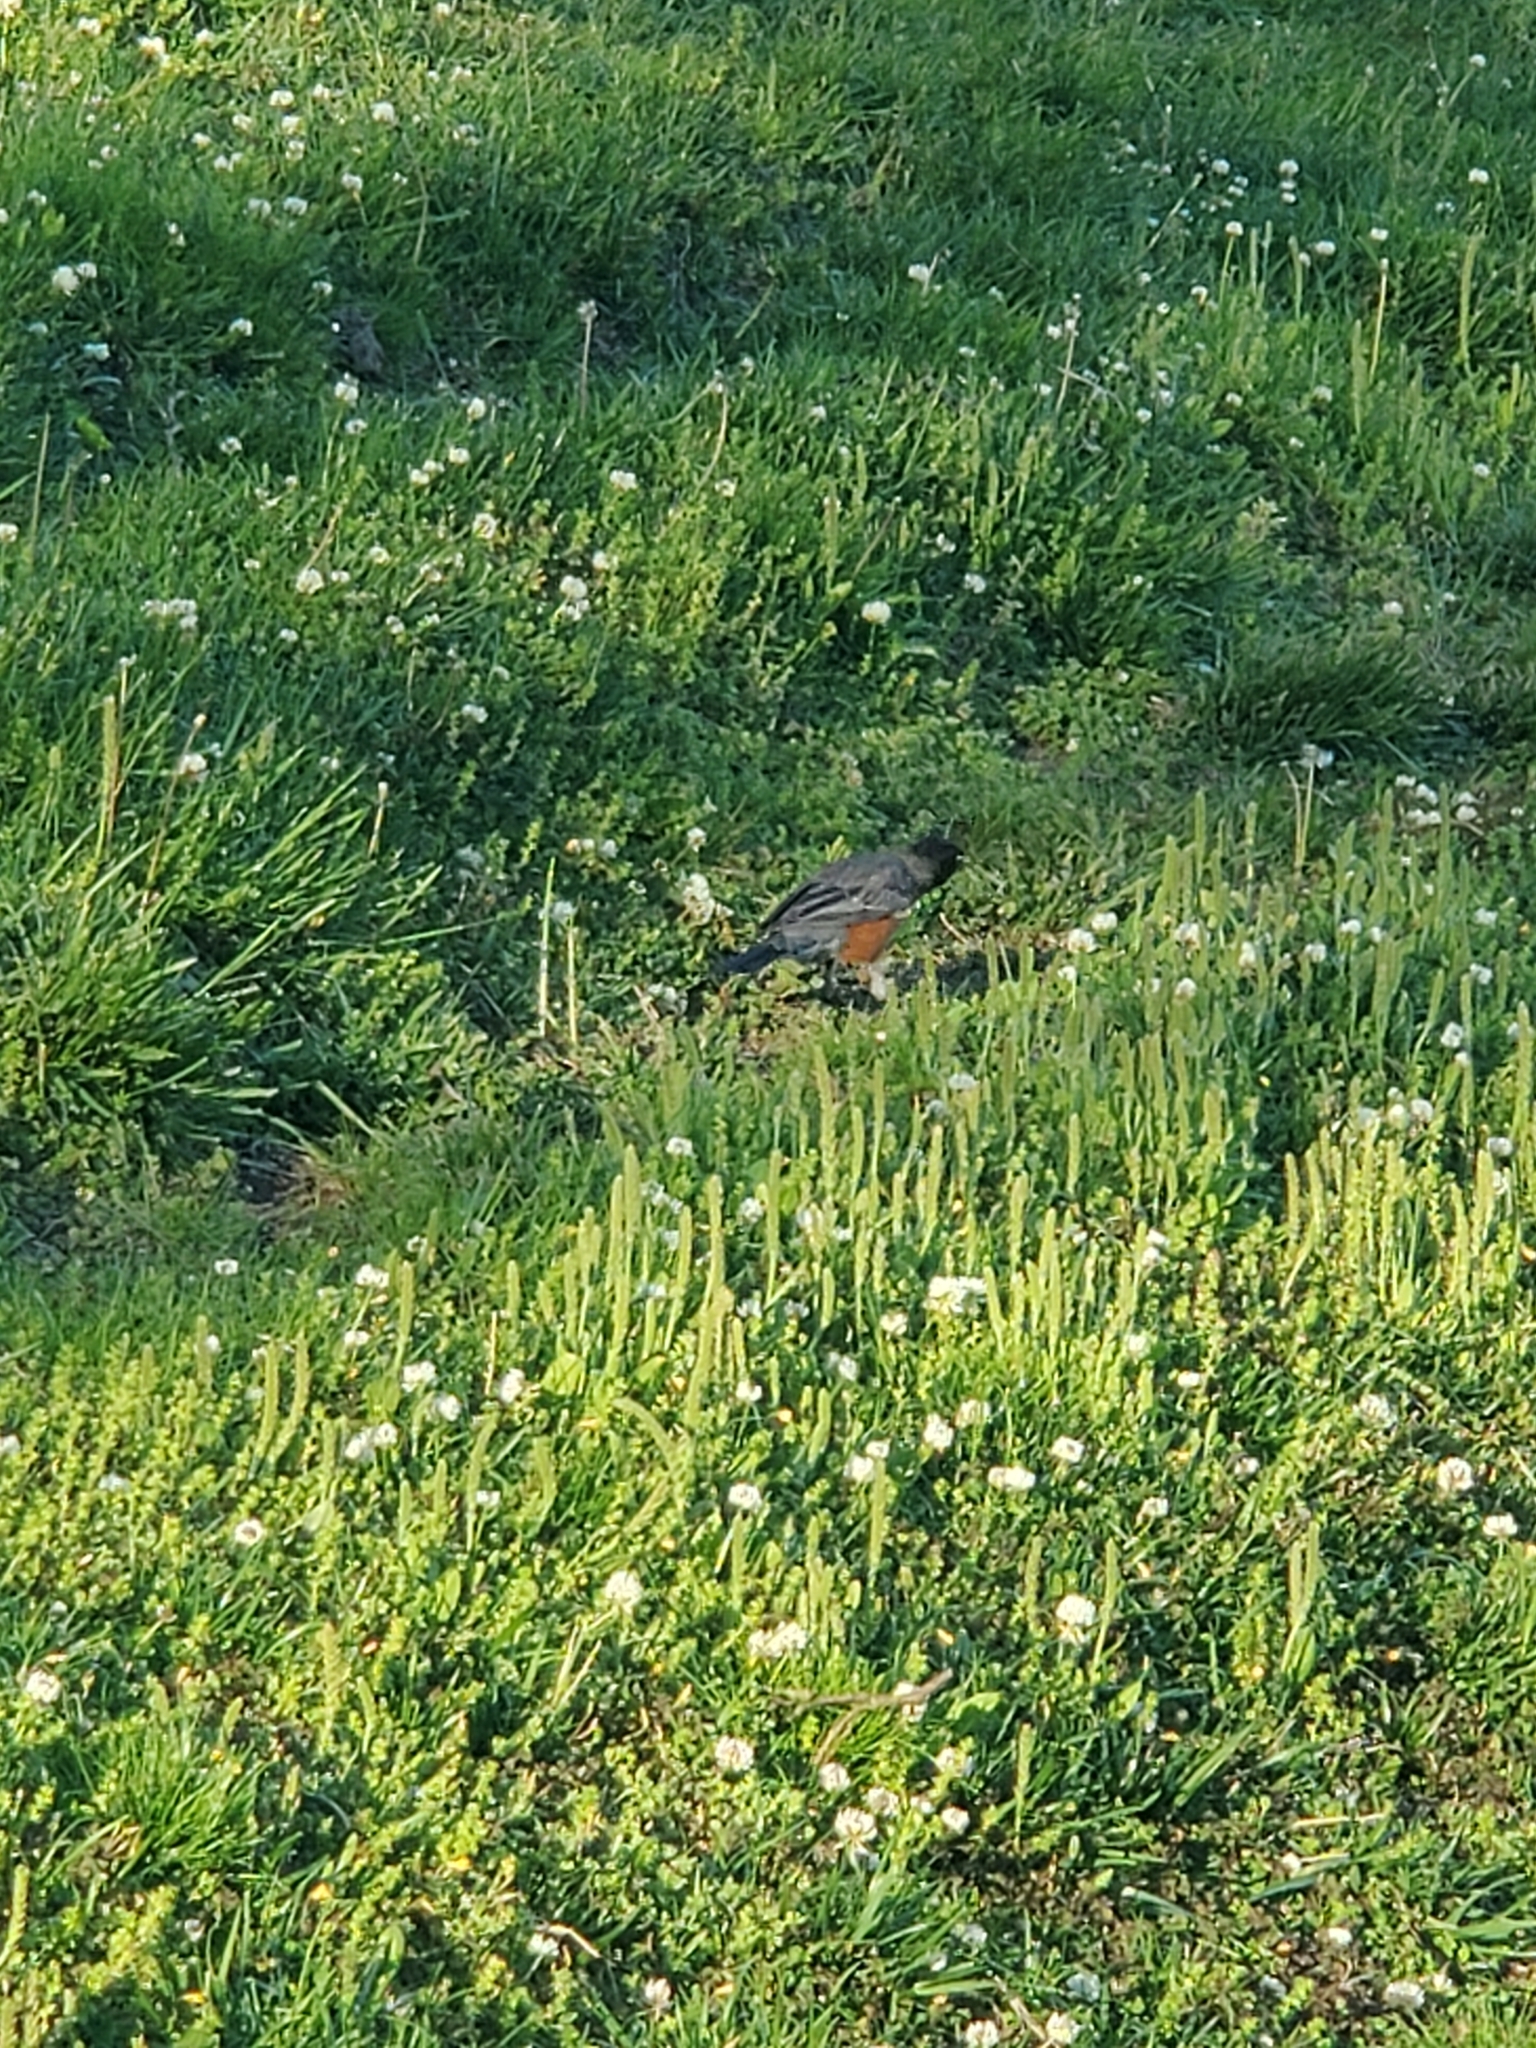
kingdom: Animalia
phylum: Chordata
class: Aves
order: Passeriformes
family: Turdidae
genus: Turdus
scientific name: Turdus migratorius
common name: American robin
